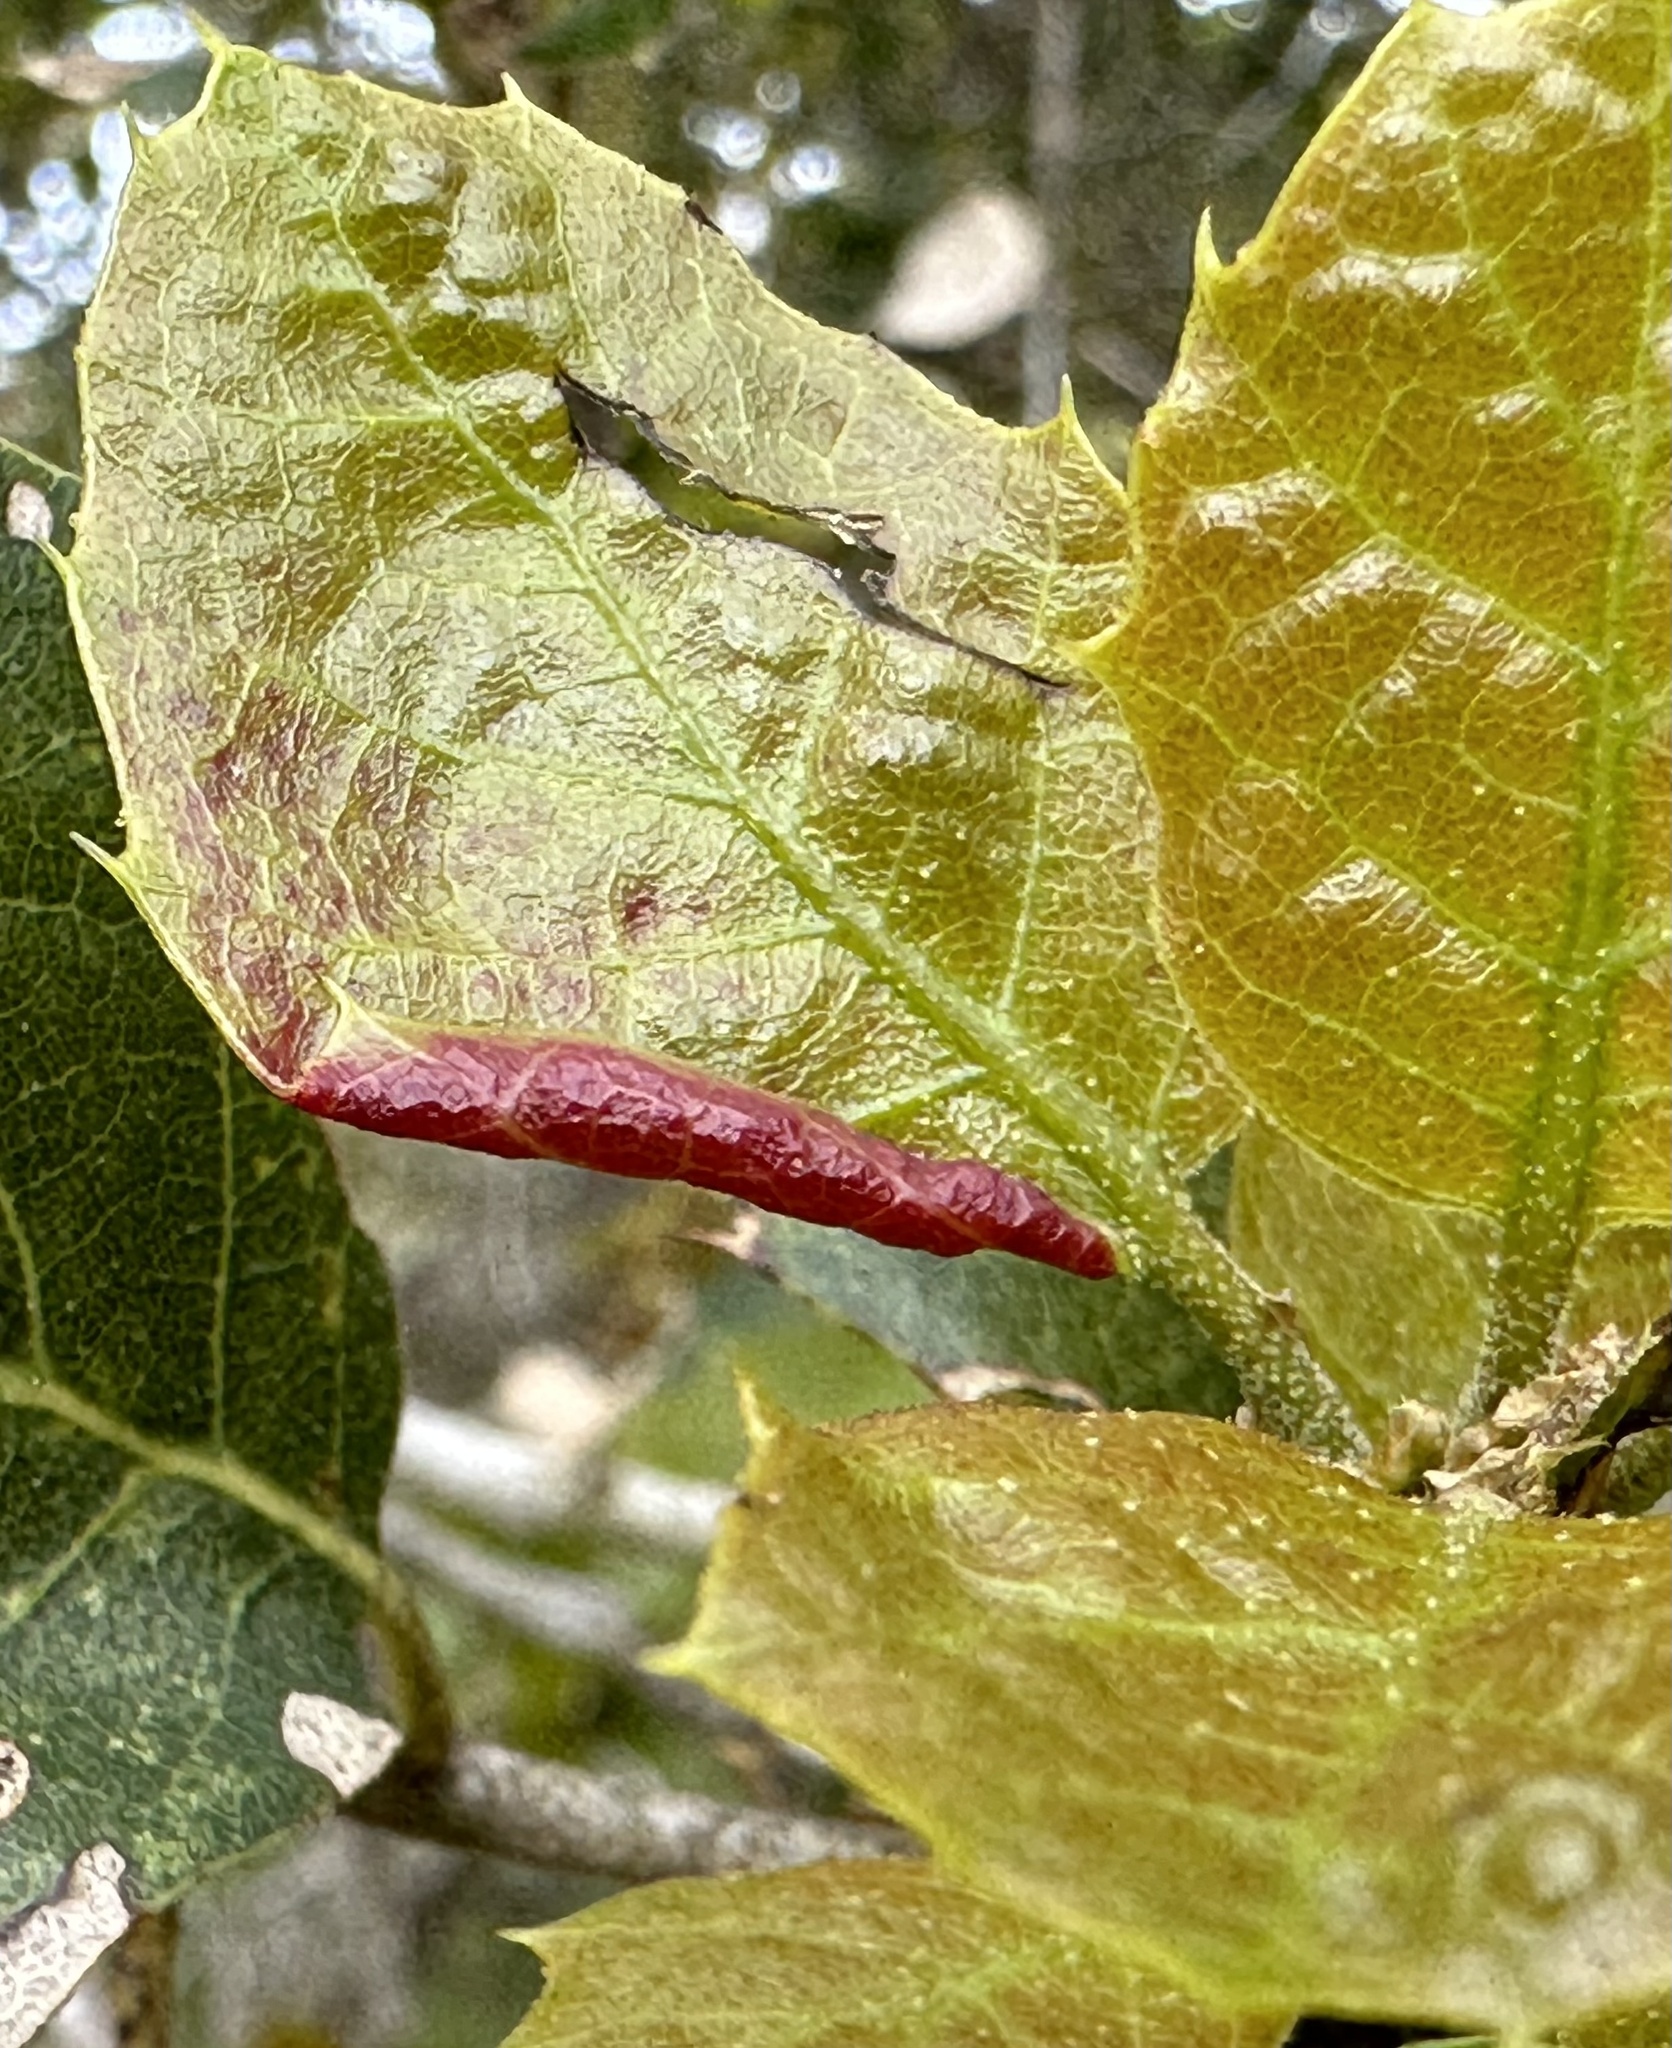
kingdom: Animalia
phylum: Arthropoda
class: Insecta
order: Hemiptera
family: Aphididae
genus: Stegophylla
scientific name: Stegophylla essigi
